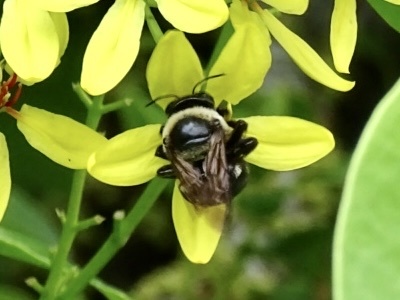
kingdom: Animalia
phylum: Arthropoda
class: Insecta
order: Hymenoptera
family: Apidae
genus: Xylocopa
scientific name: Xylocopa dejeanii
